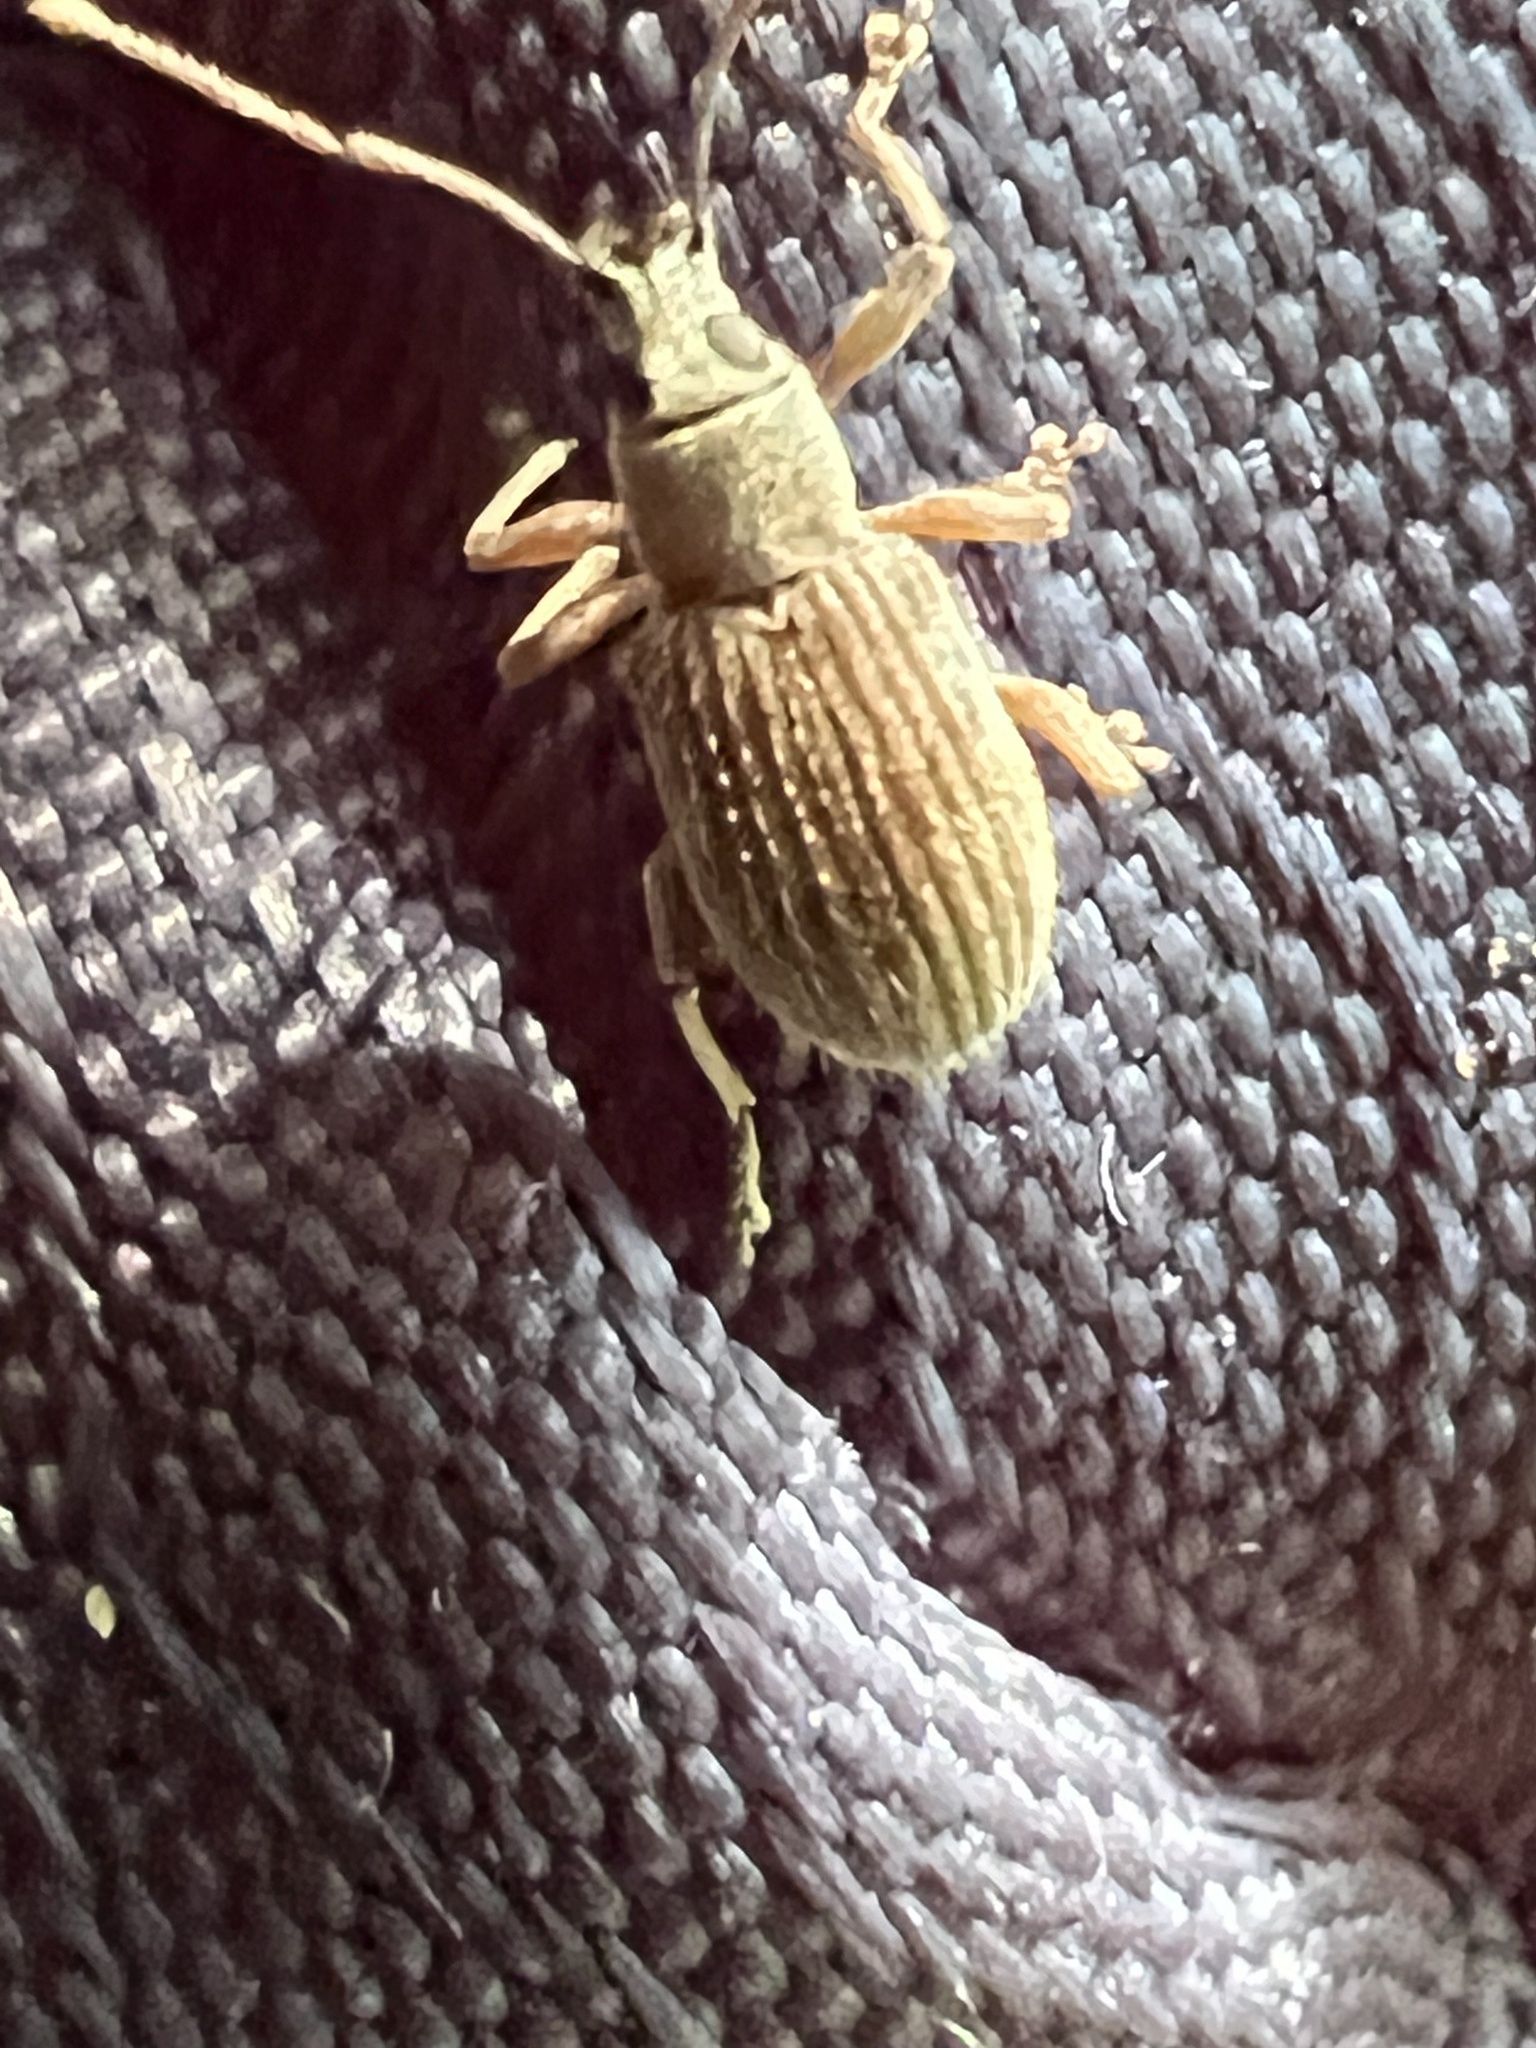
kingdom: Animalia
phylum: Arthropoda
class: Insecta
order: Coleoptera
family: Curculionidae
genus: Cyrtepistomus
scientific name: Cyrtepistomus castaneus
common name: Weevil
